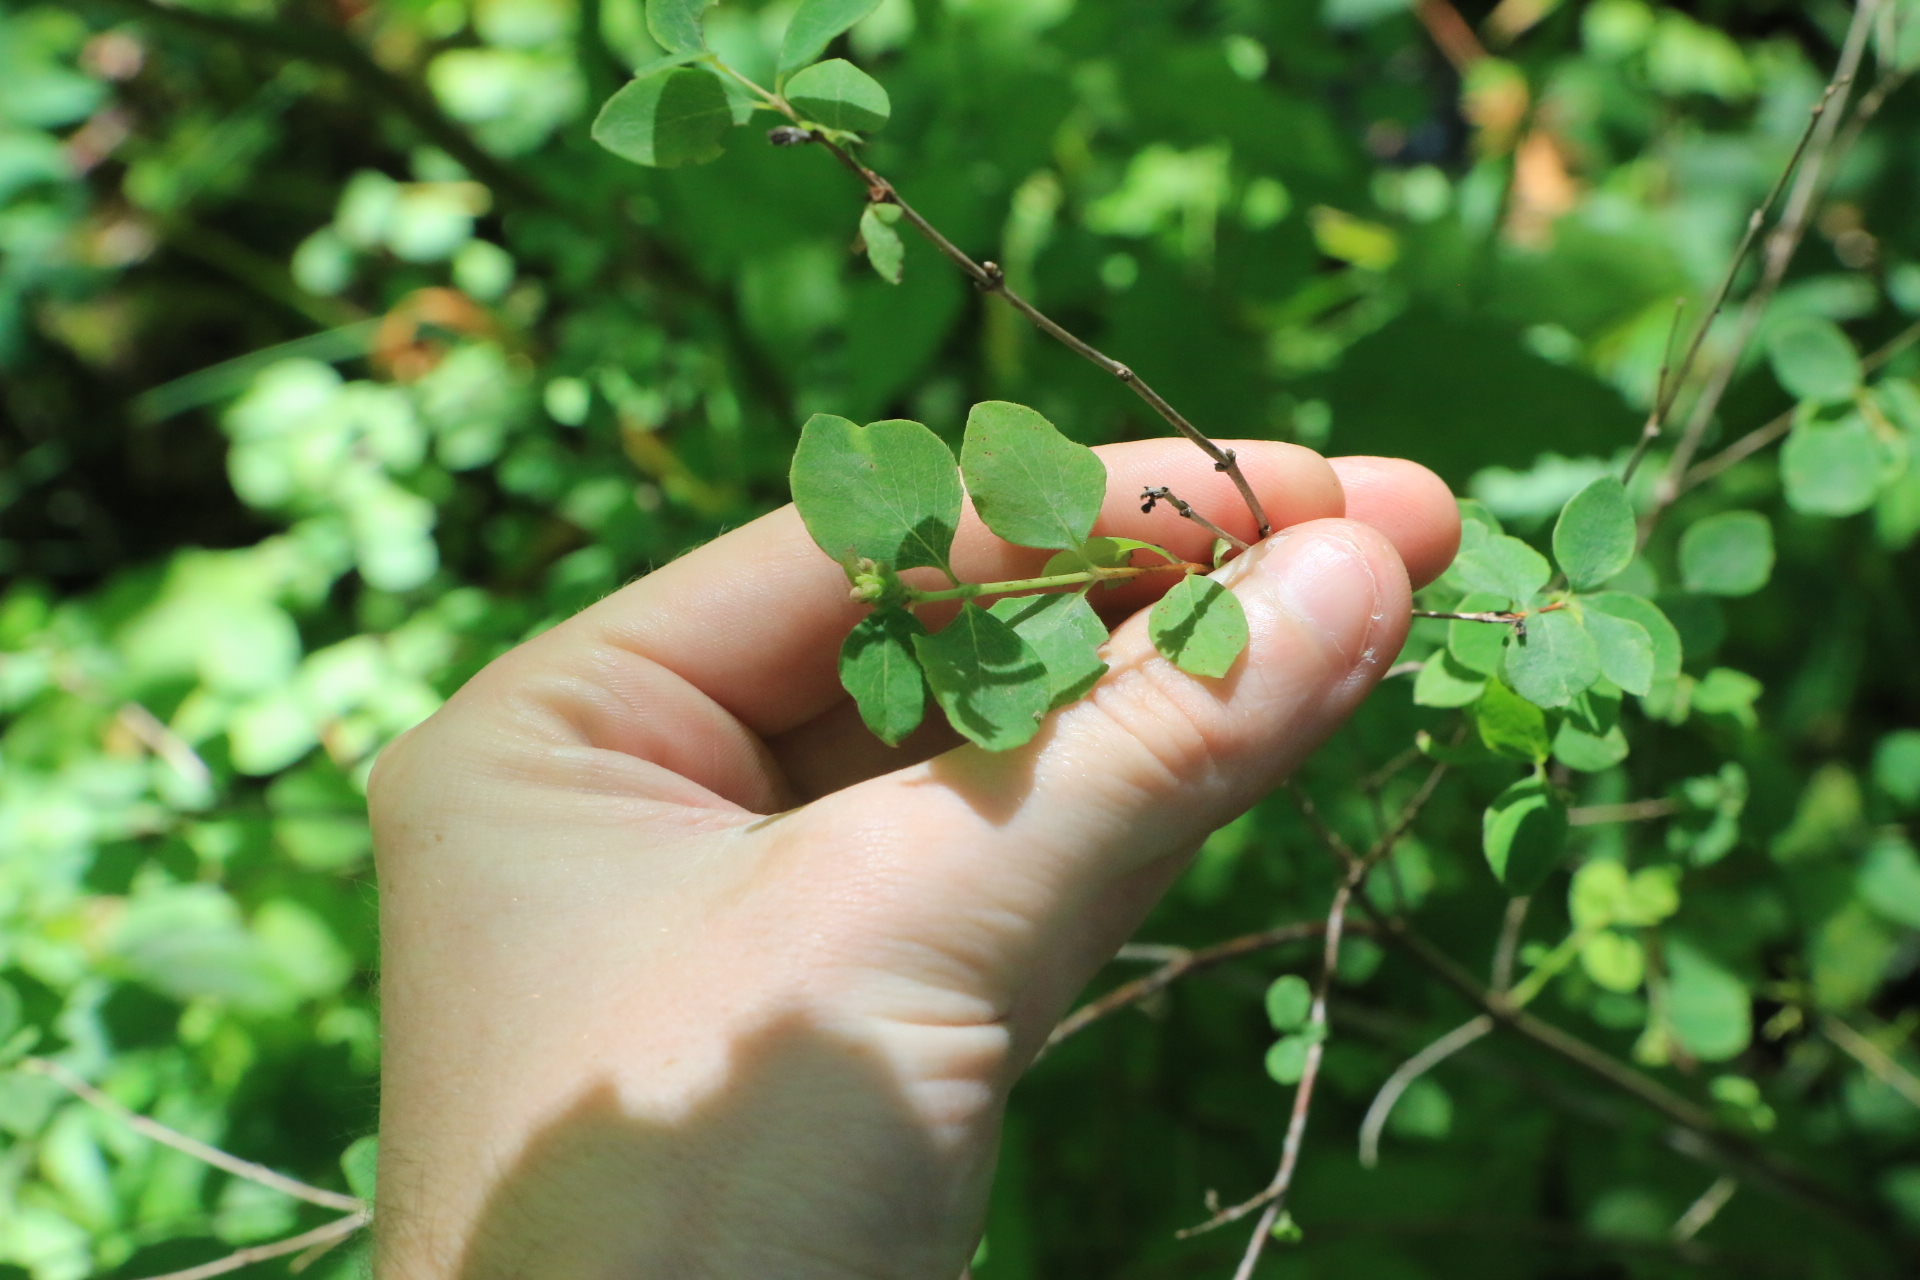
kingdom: Plantae
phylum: Tracheophyta
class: Magnoliopsida
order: Dipsacales
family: Caprifoliaceae
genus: Symphoricarpos
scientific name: Symphoricarpos albus
